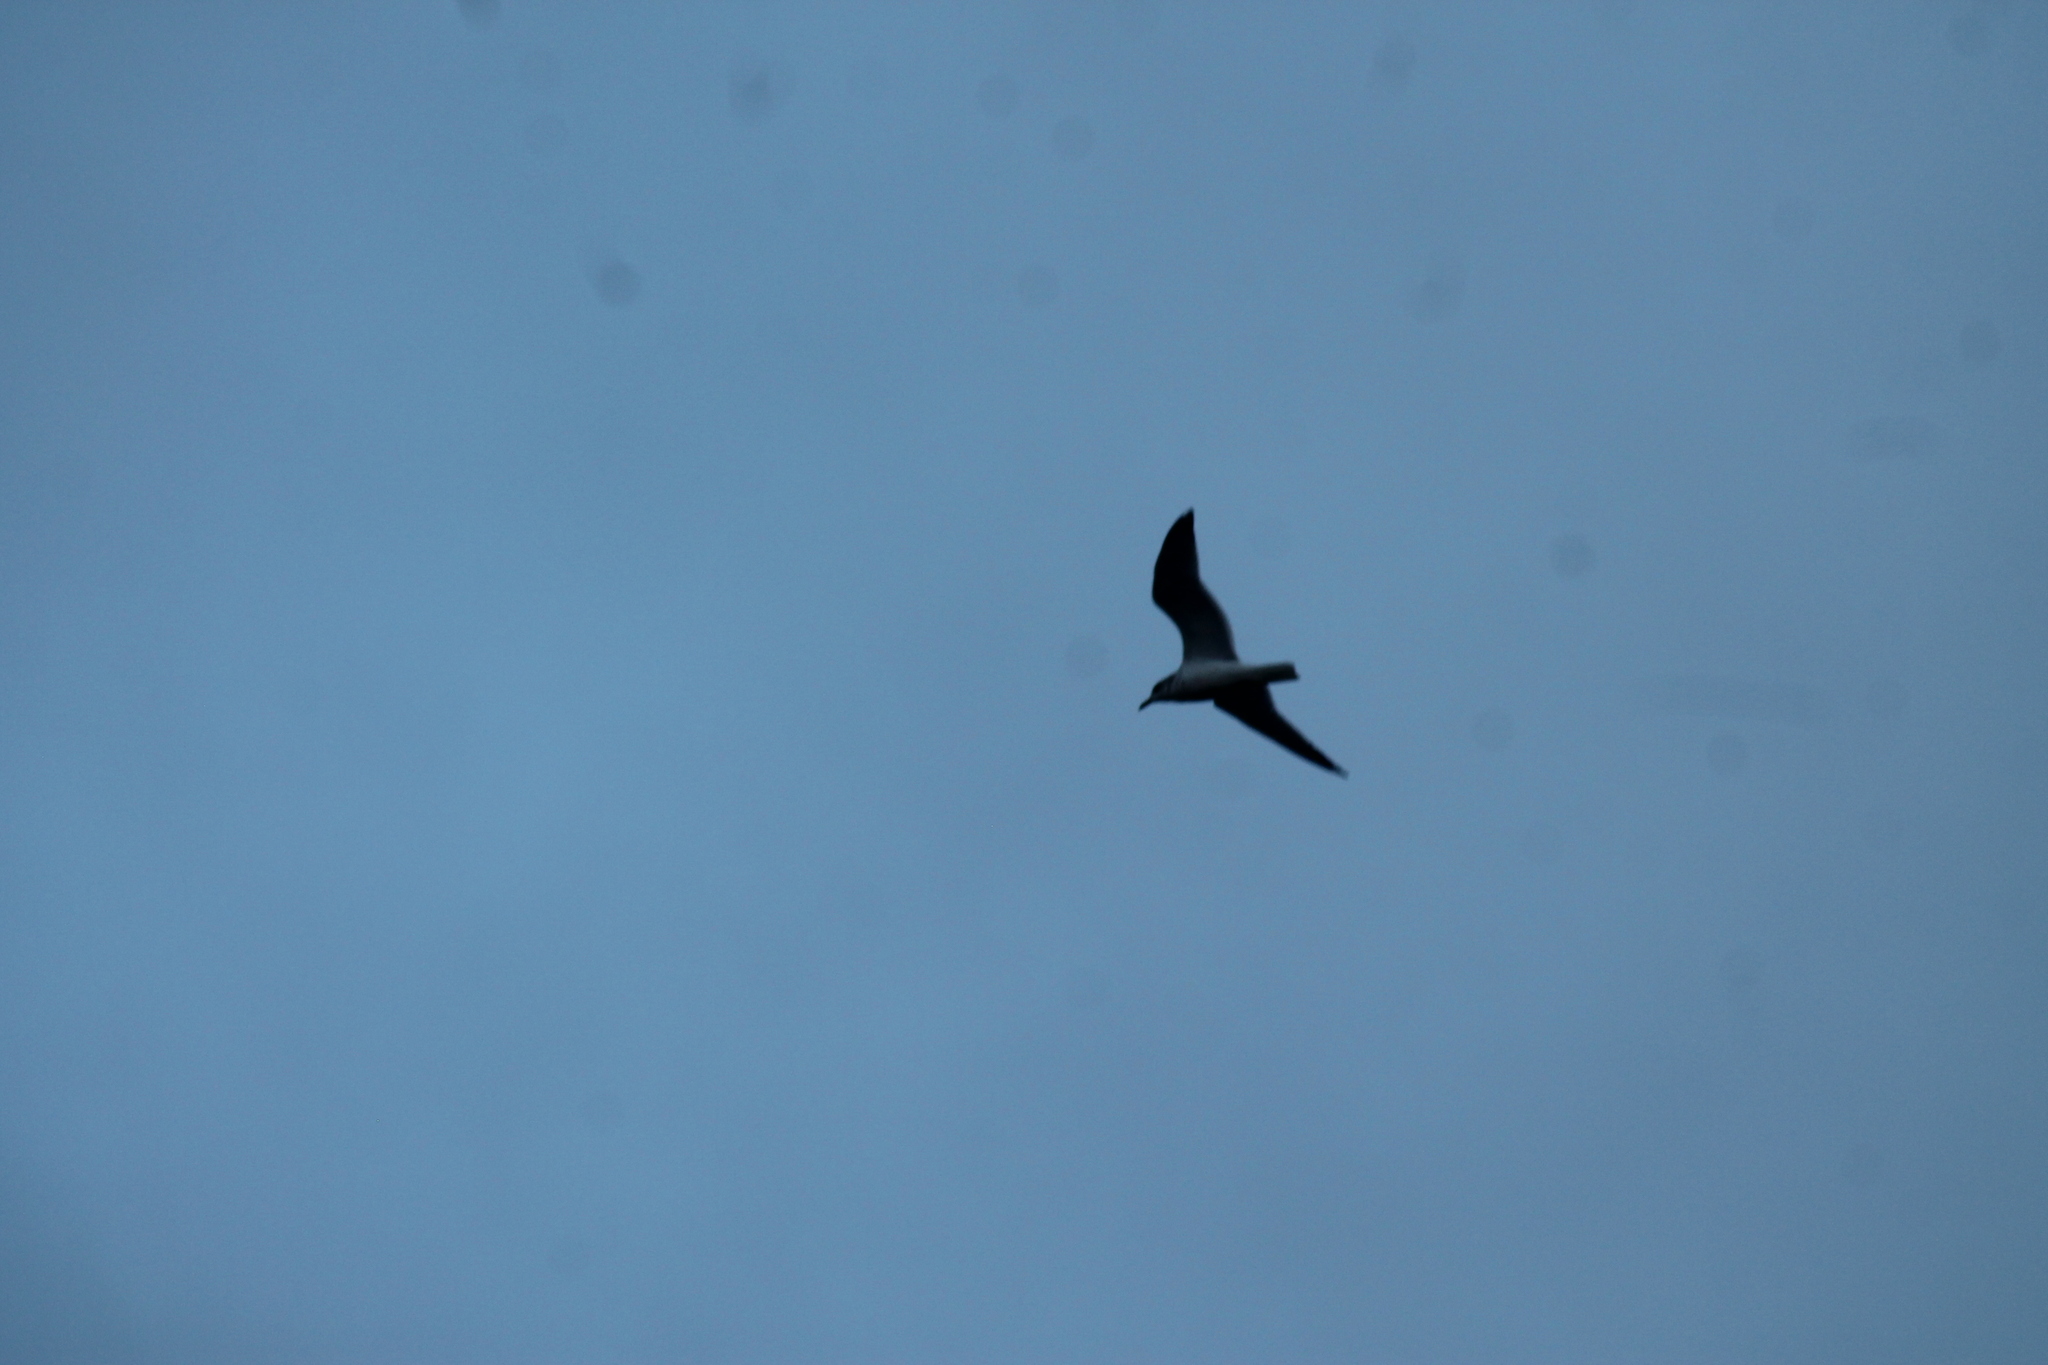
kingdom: Animalia
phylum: Chordata
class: Aves
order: Charadriiformes
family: Laridae
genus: Larus
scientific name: Larus delawarensis
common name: Ring-billed gull
